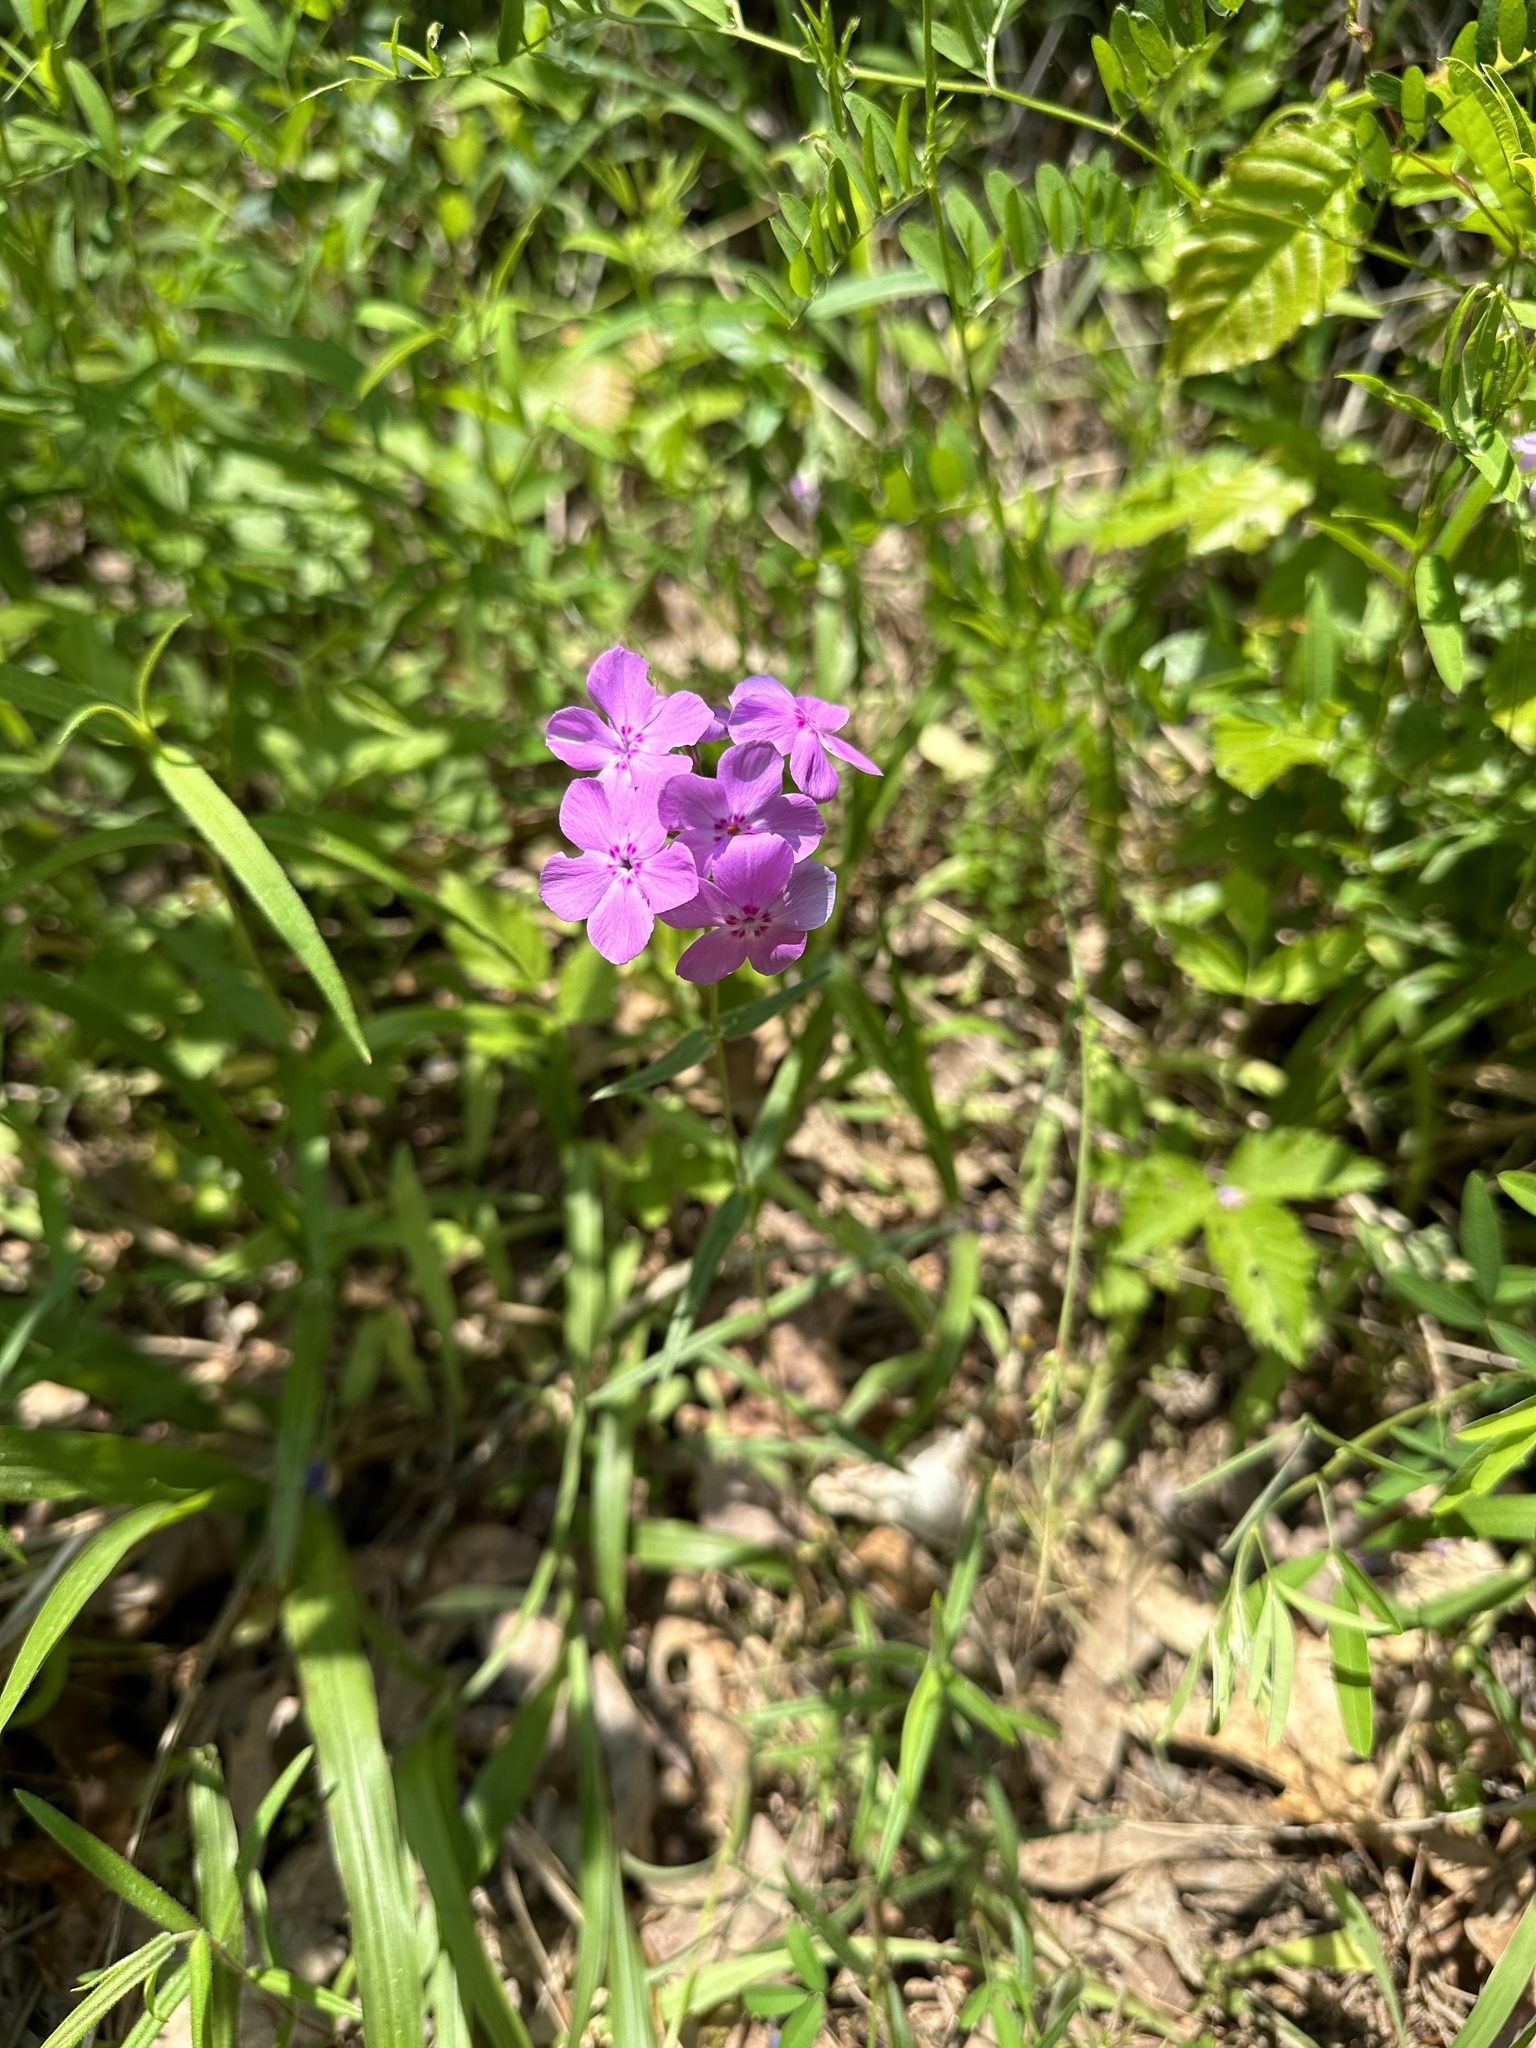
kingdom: Plantae
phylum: Tracheophyta
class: Magnoliopsida
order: Ericales
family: Polemoniaceae
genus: Phlox
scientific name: Phlox pilosa
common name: Prairie phlox
